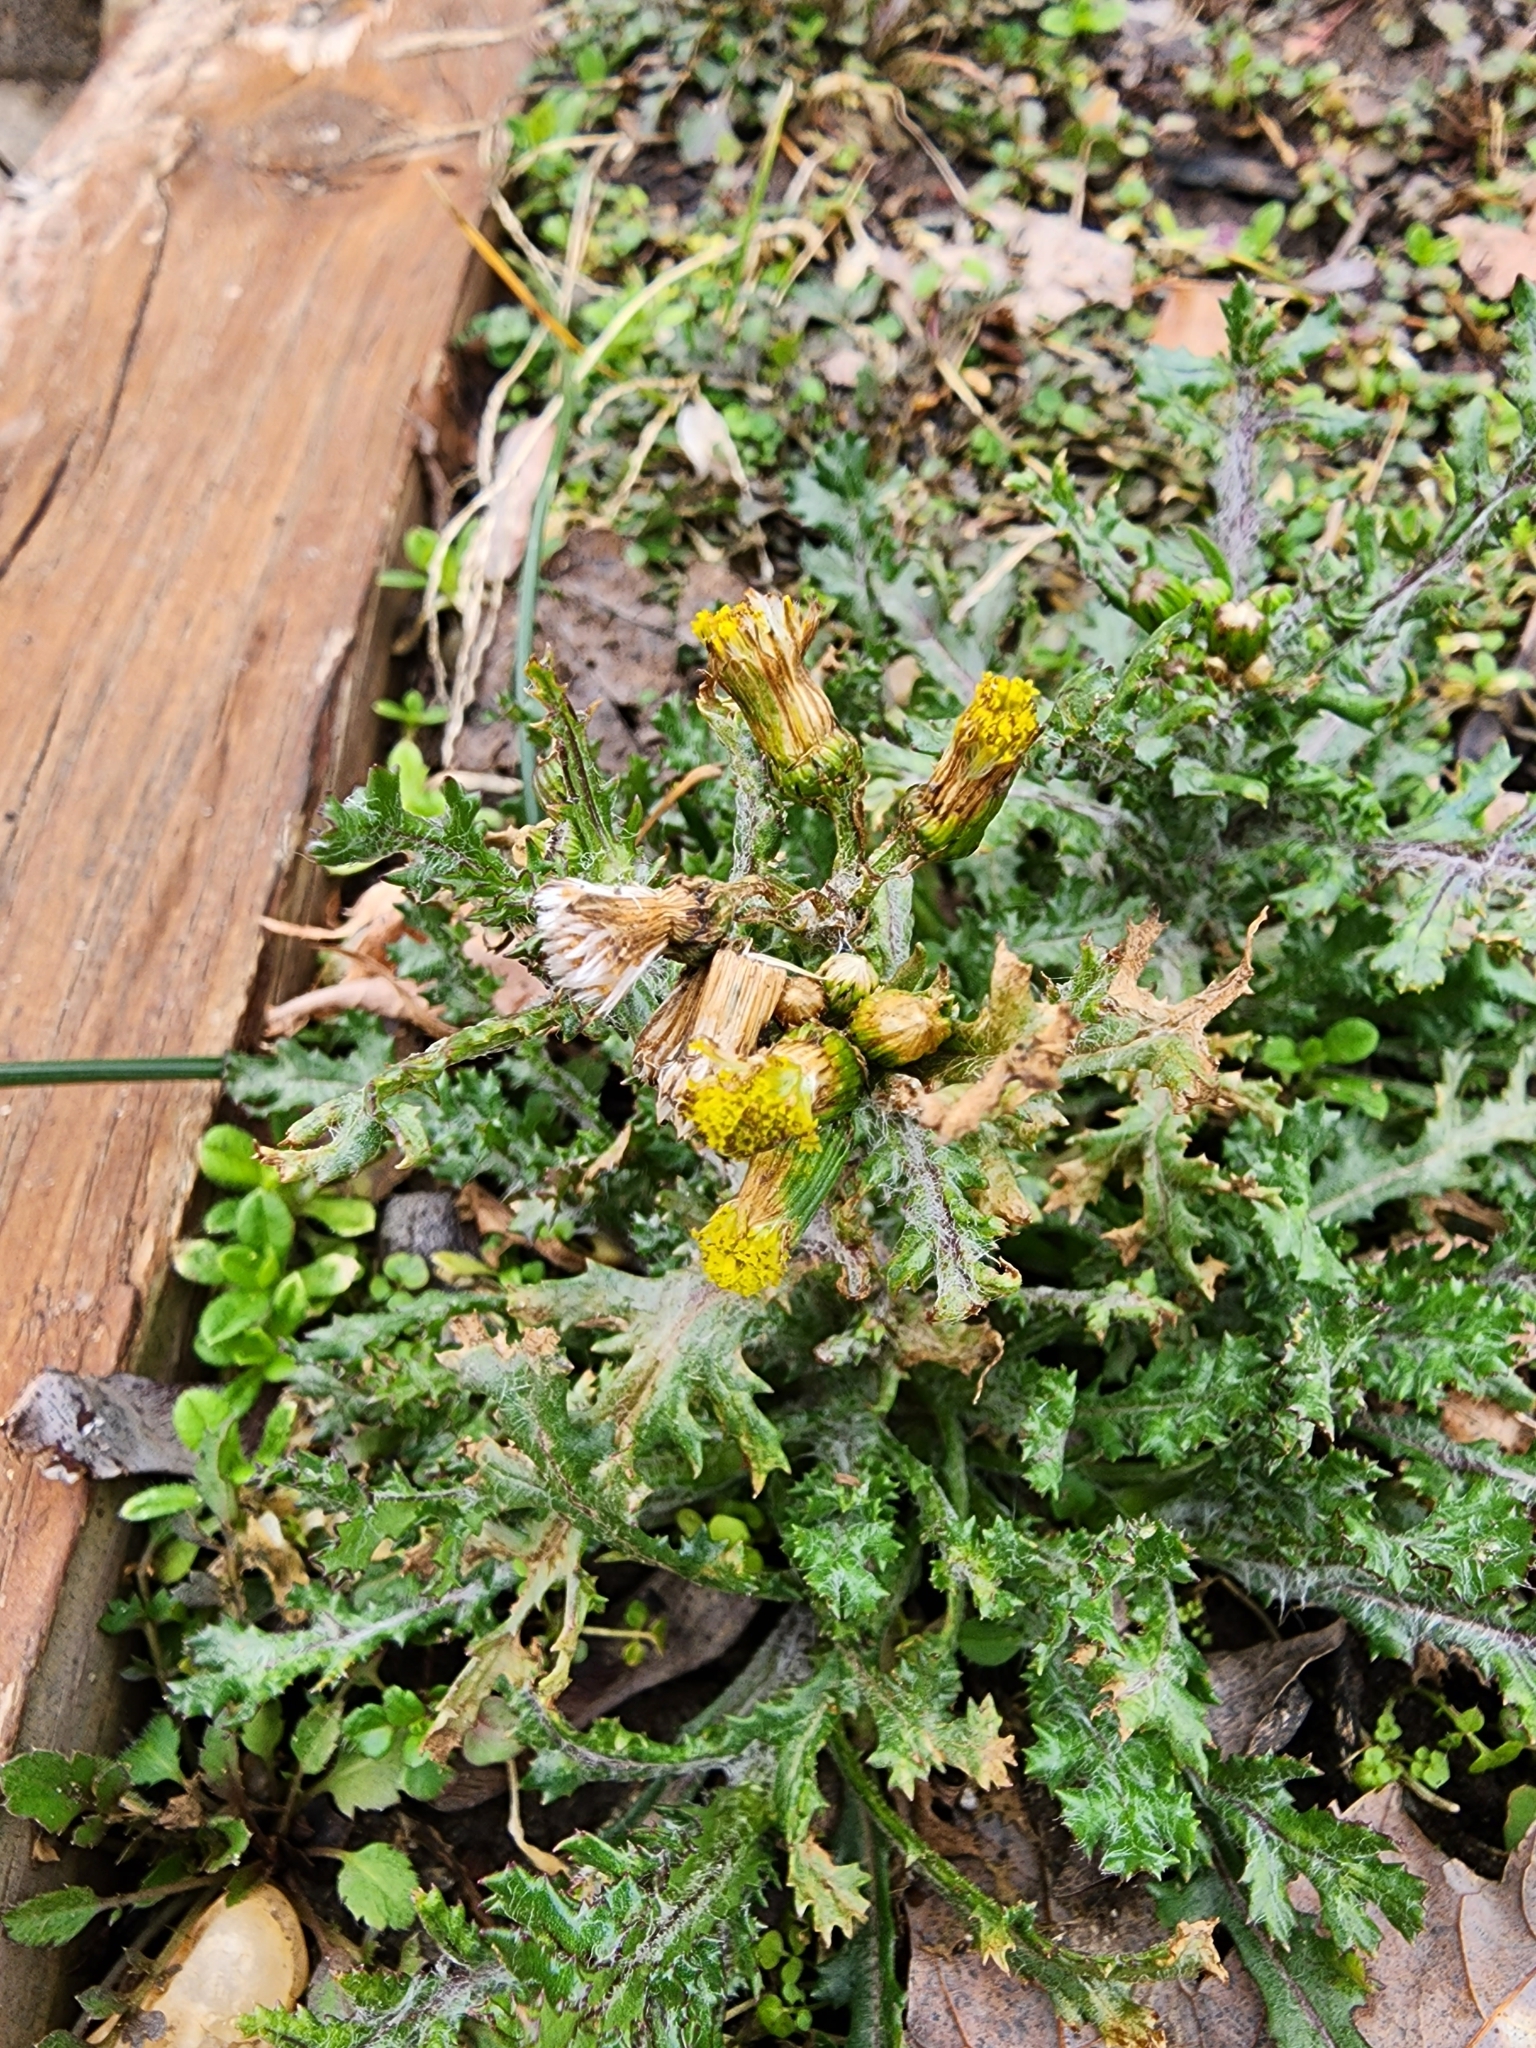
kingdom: Plantae
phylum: Tracheophyta
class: Magnoliopsida
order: Asterales
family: Asteraceae
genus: Senecio
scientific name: Senecio vulgaris
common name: Old-man-in-the-spring
